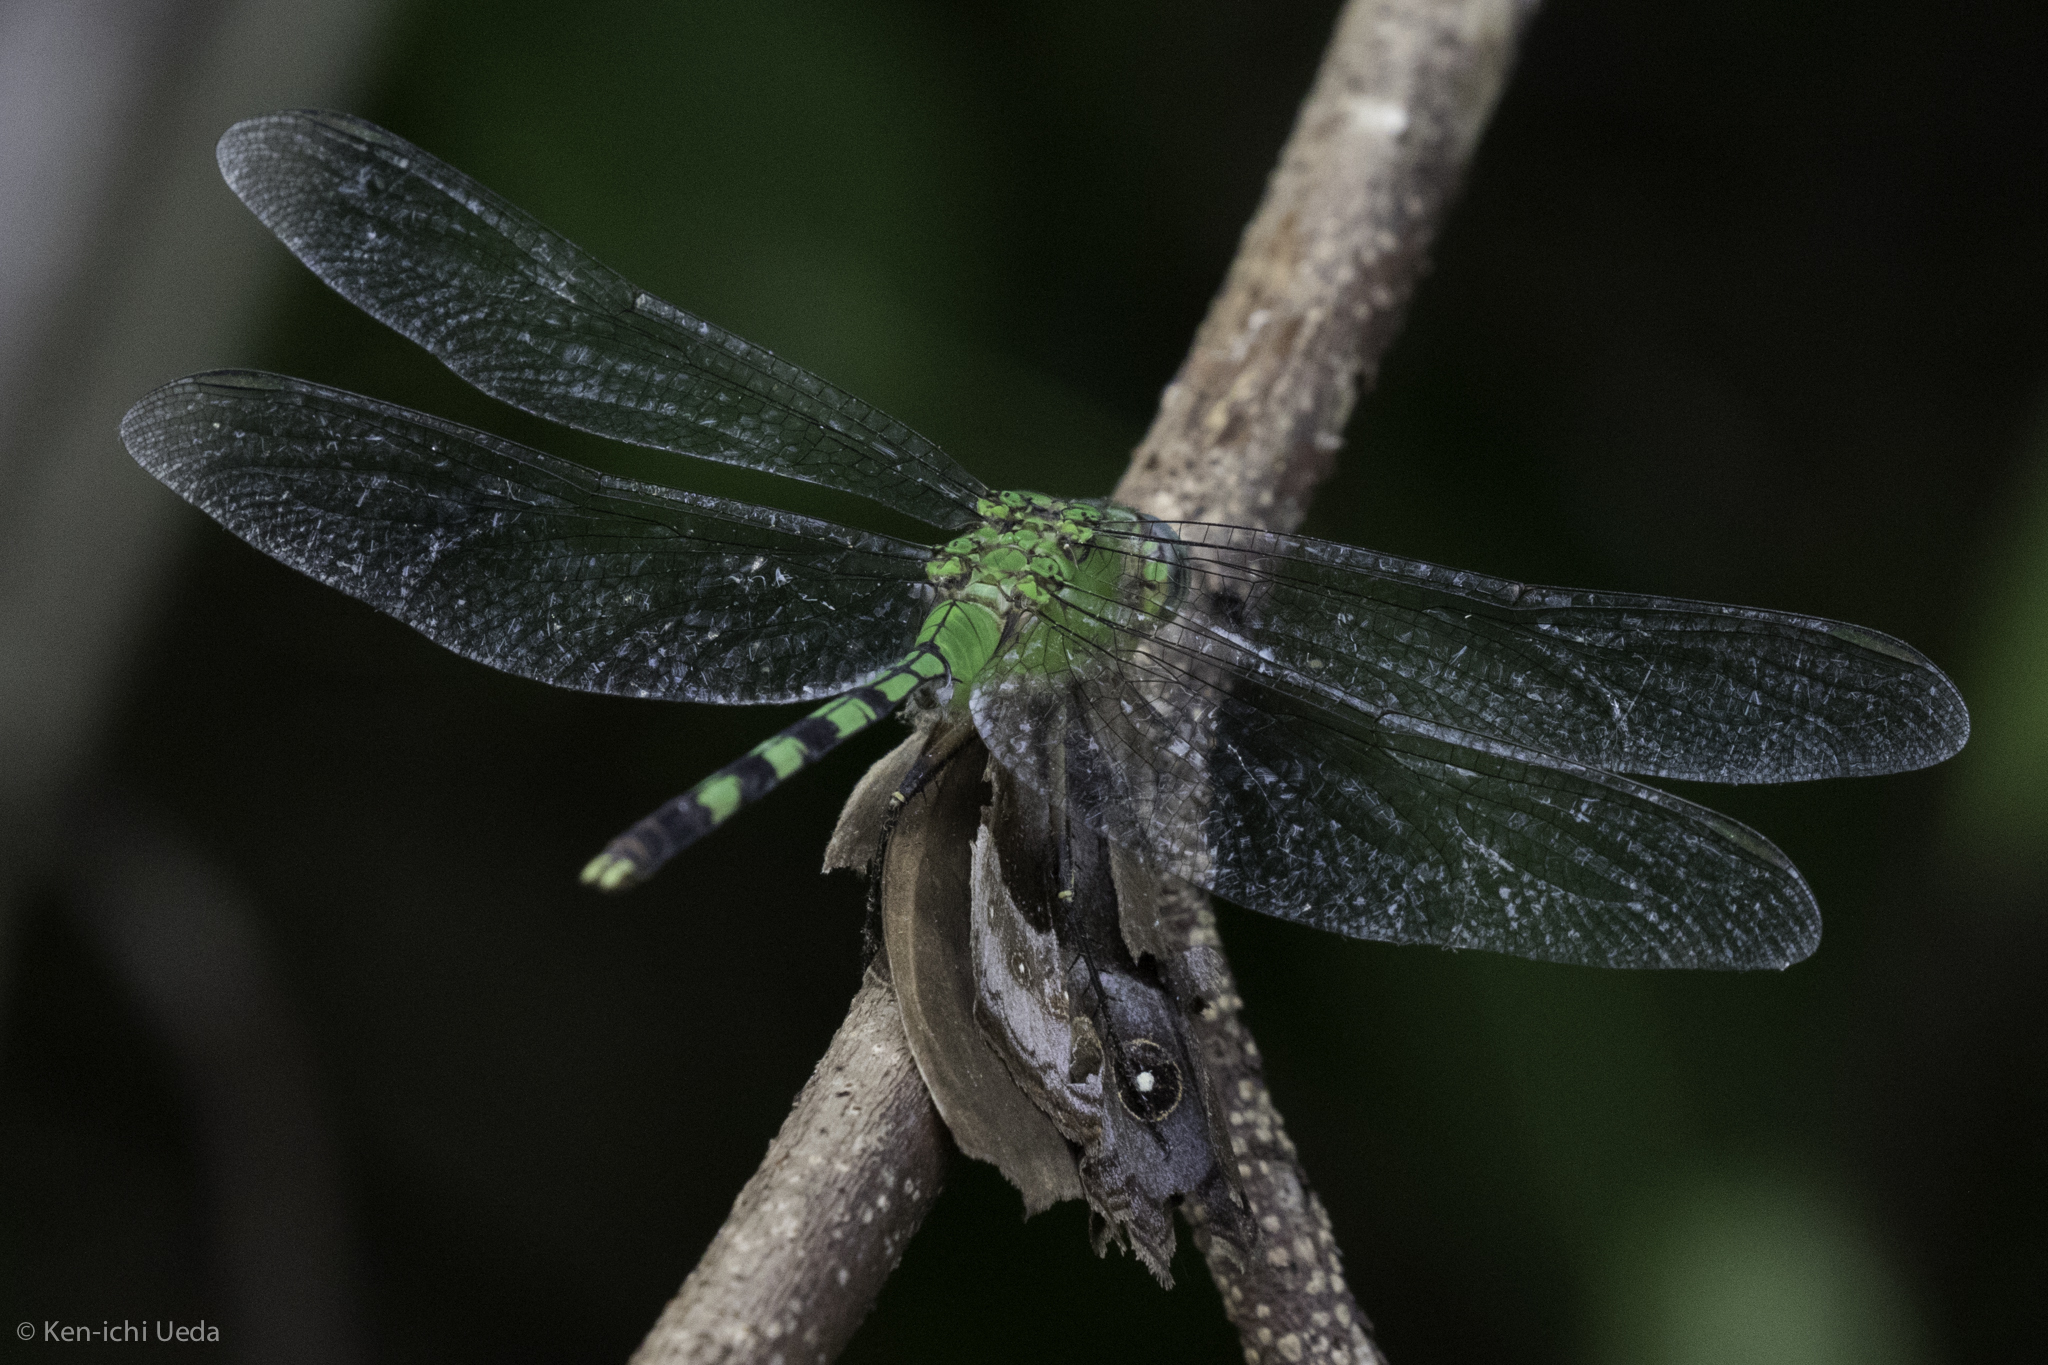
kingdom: Animalia
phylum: Arthropoda
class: Insecta
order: Odonata
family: Libellulidae
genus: Erythemis
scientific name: Erythemis vesiculosa
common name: Great pondhawk
